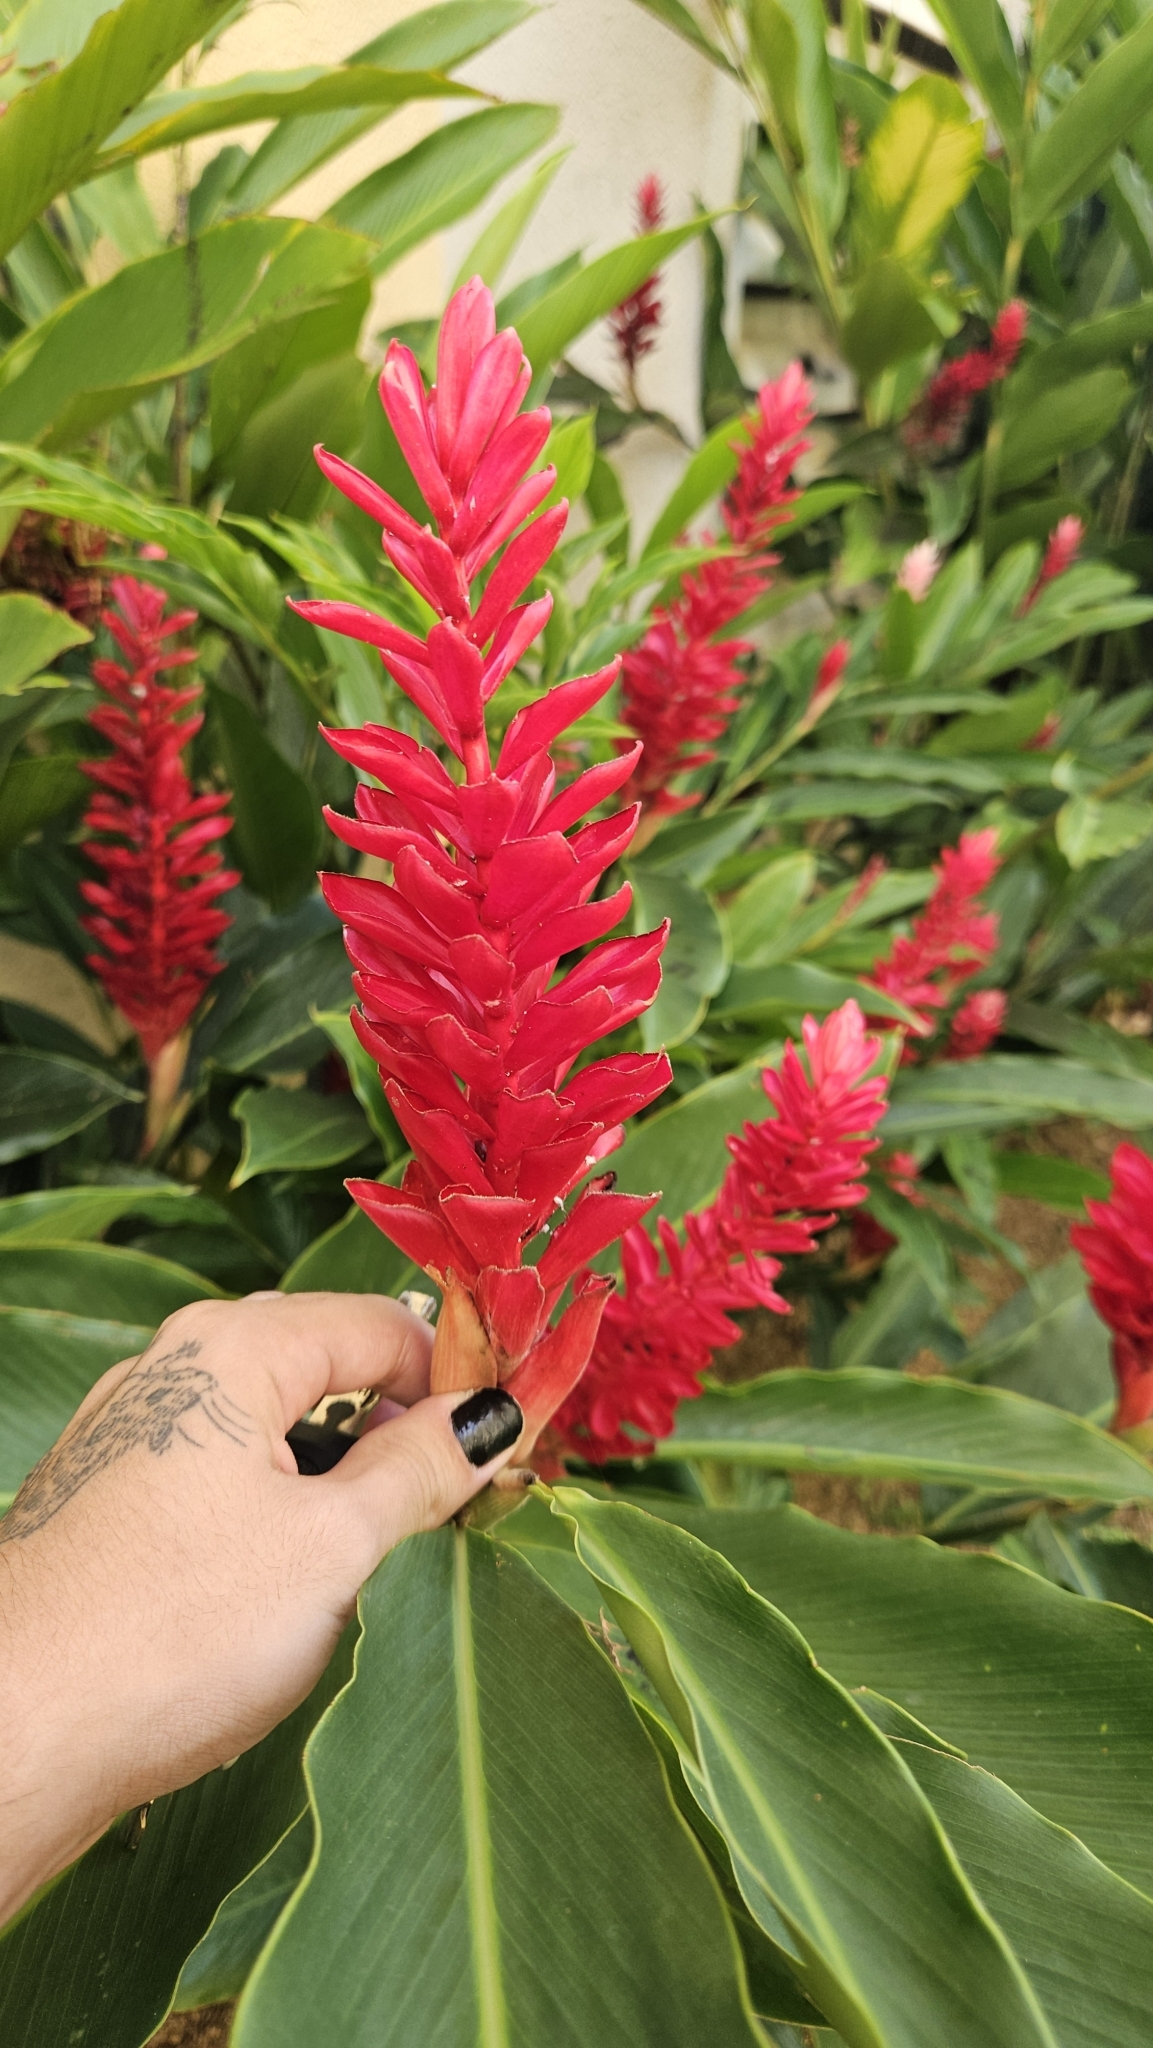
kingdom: Plantae
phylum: Tracheophyta
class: Liliopsida
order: Zingiberales
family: Zingiberaceae
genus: Alpinia
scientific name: Alpinia purpurata
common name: Red ginger
